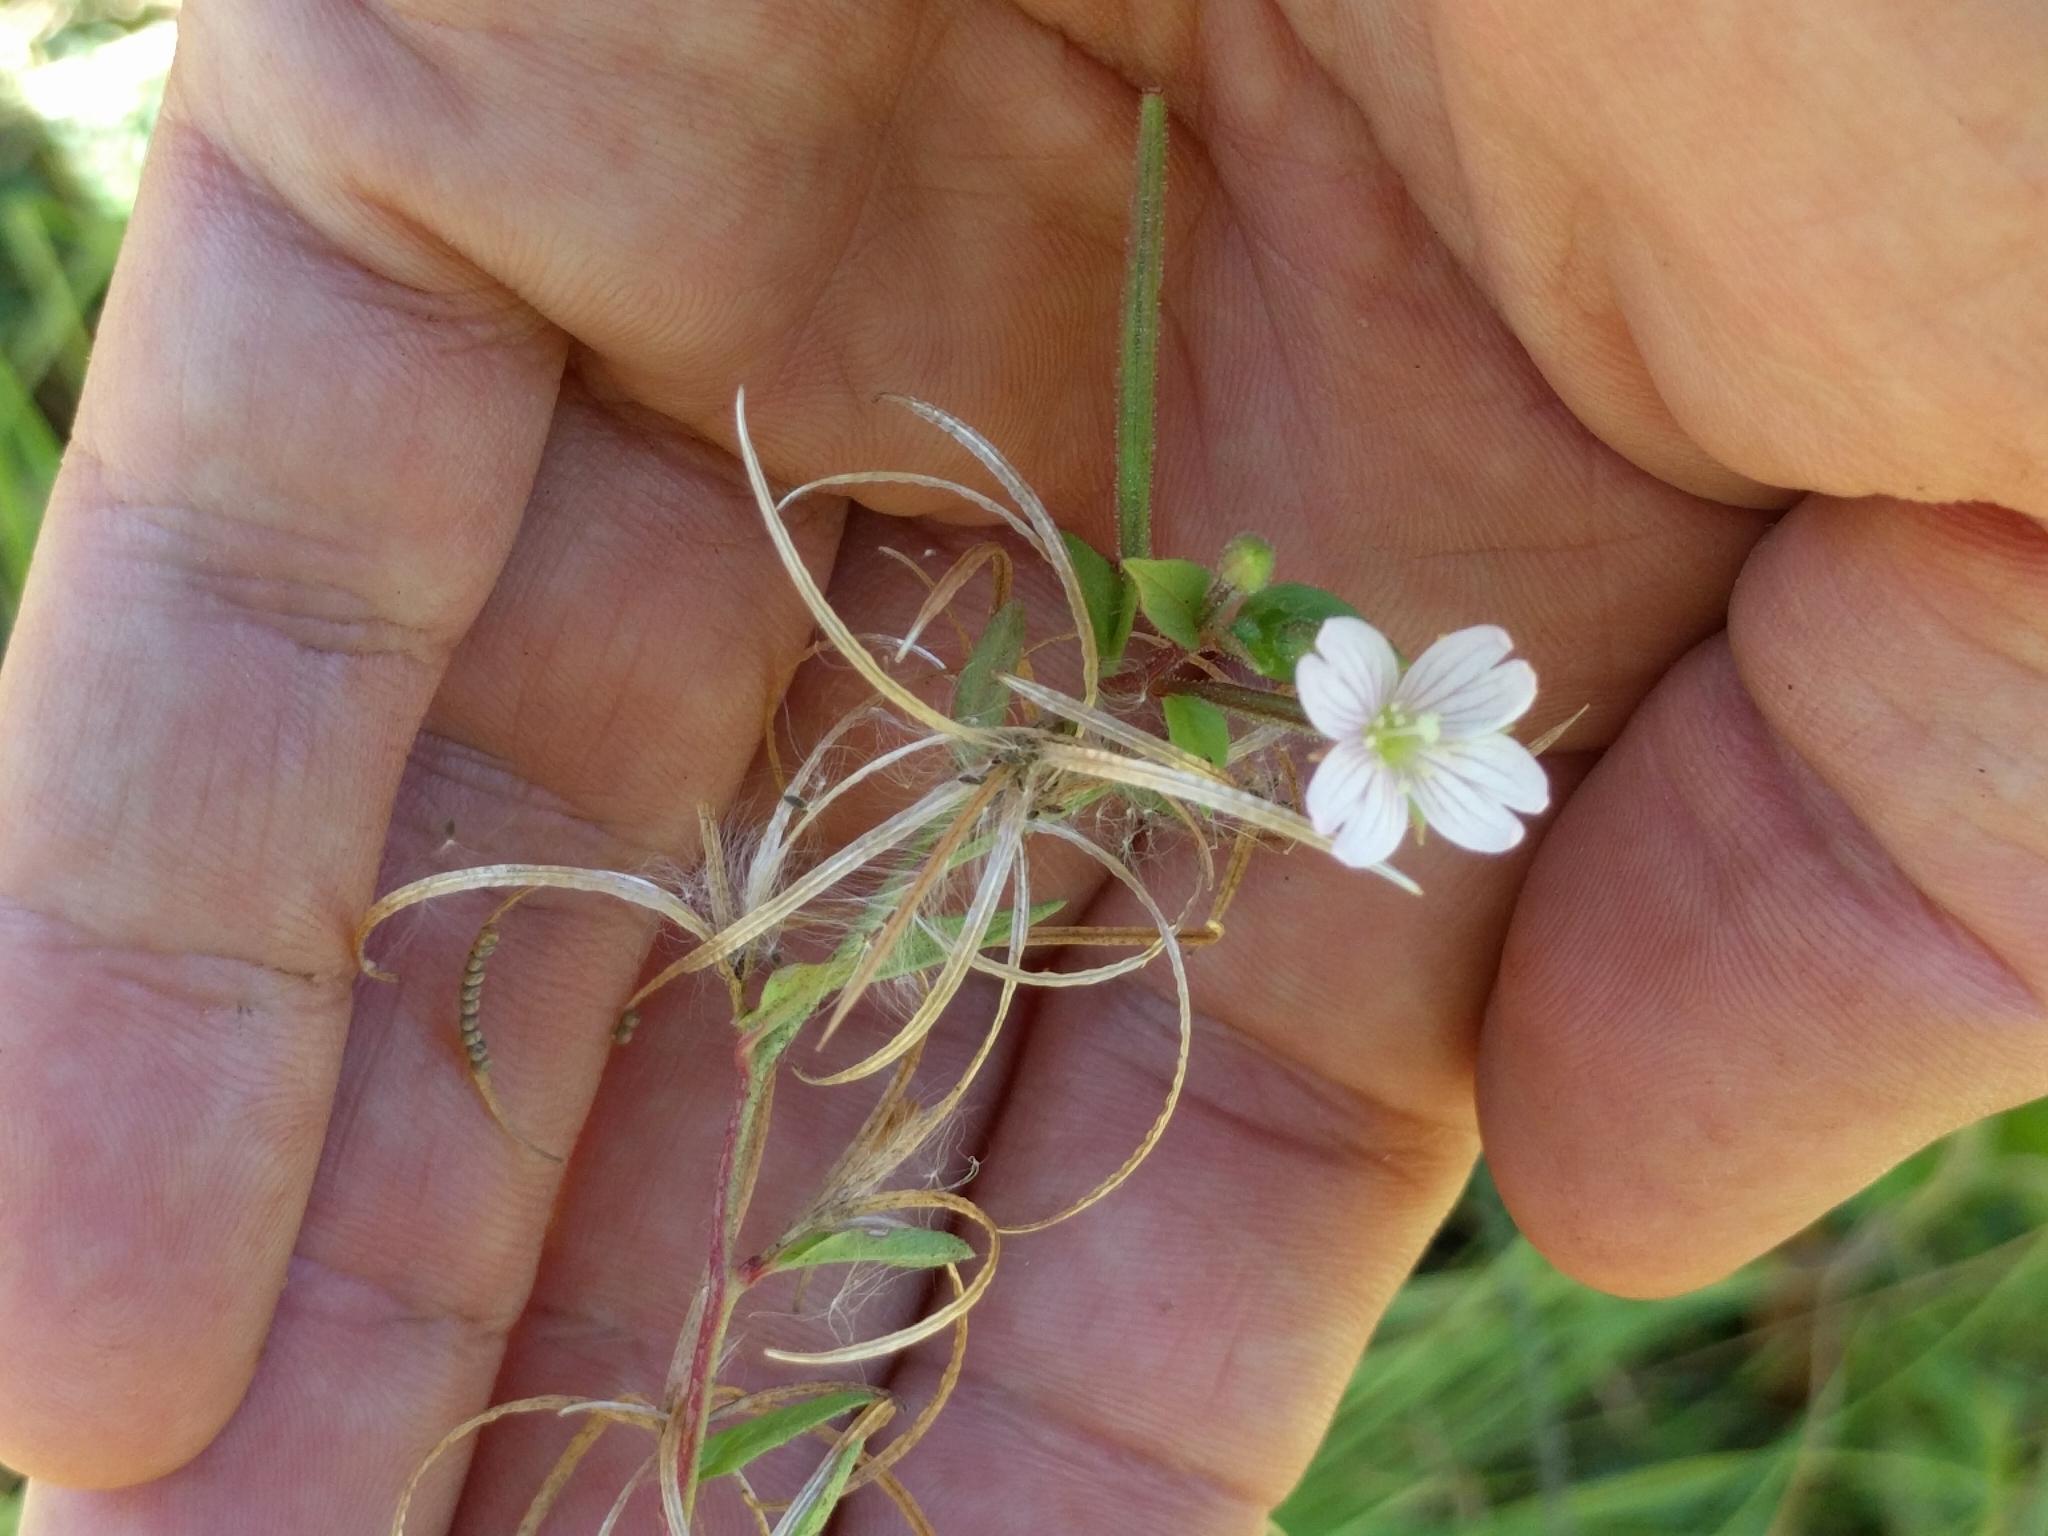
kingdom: Plantae
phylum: Tracheophyta
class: Magnoliopsida
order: Myrtales
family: Onagraceae
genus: Epilobium
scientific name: Epilobium ciliatum
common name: American willowherb
